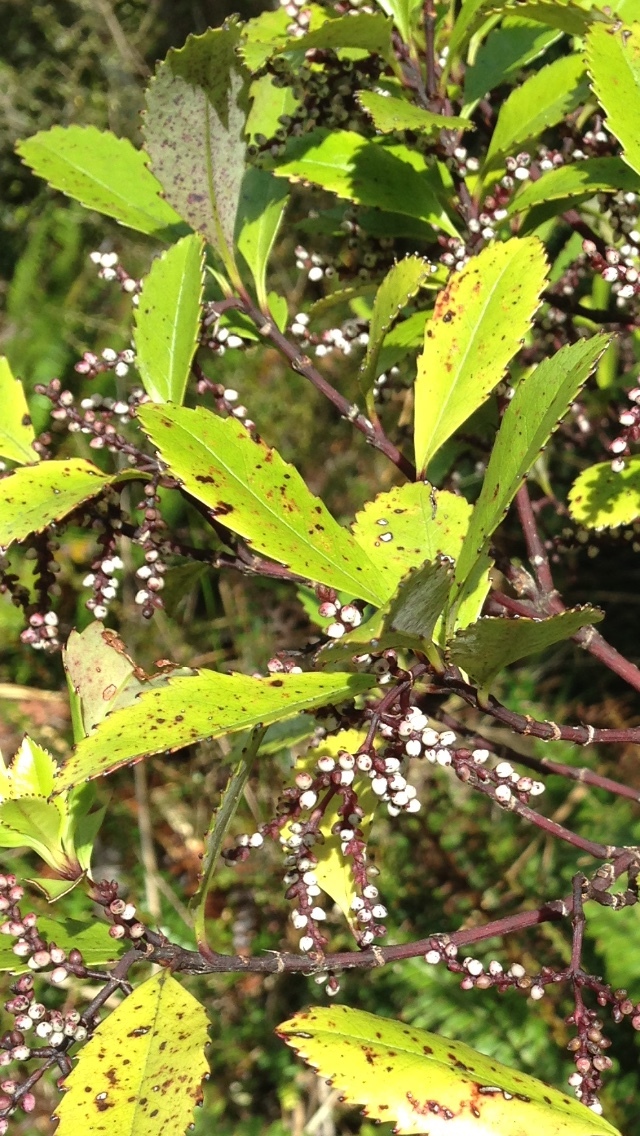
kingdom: Plantae
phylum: Tracheophyta
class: Magnoliopsida
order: Chloranthales
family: Chloranthaceae
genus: Ascarina
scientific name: Ascarina lucida
